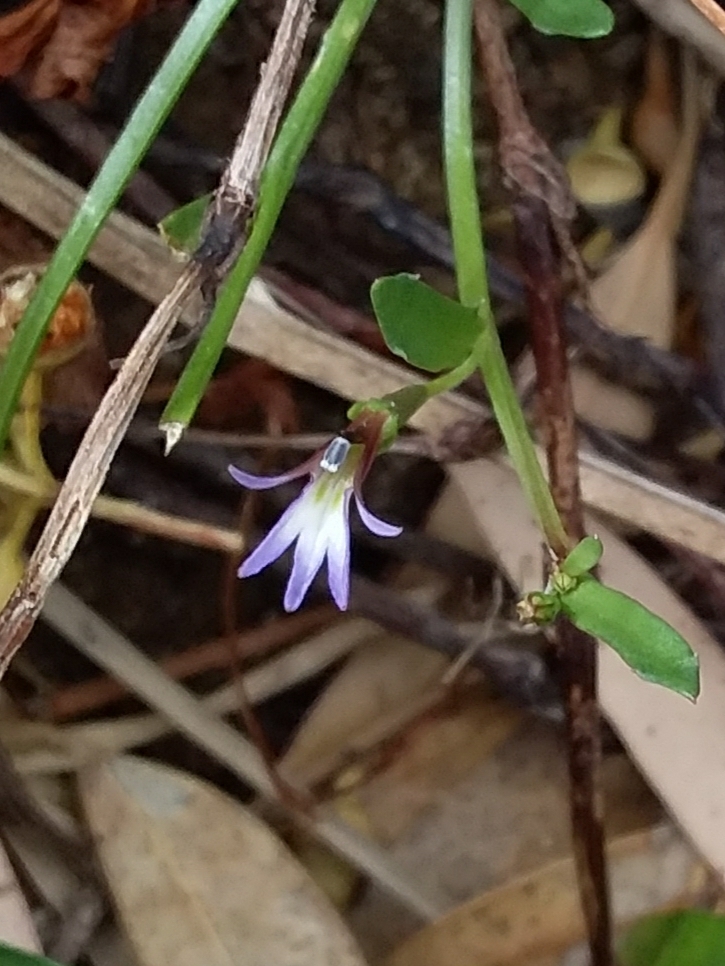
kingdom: Plantae
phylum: Tracheophyta
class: Magnoliopsida
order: Asterales
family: Campanulaceae
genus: Lobelia
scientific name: Lobelia anceps
